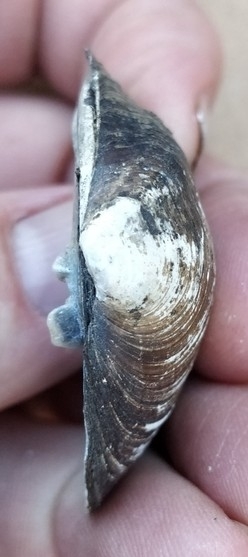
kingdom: Animalia
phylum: Mollusca
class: Bivalvia
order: Unionida
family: Unionidae
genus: Cyclonaias
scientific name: Cyclonaias pustulosa
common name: Pimpleback
